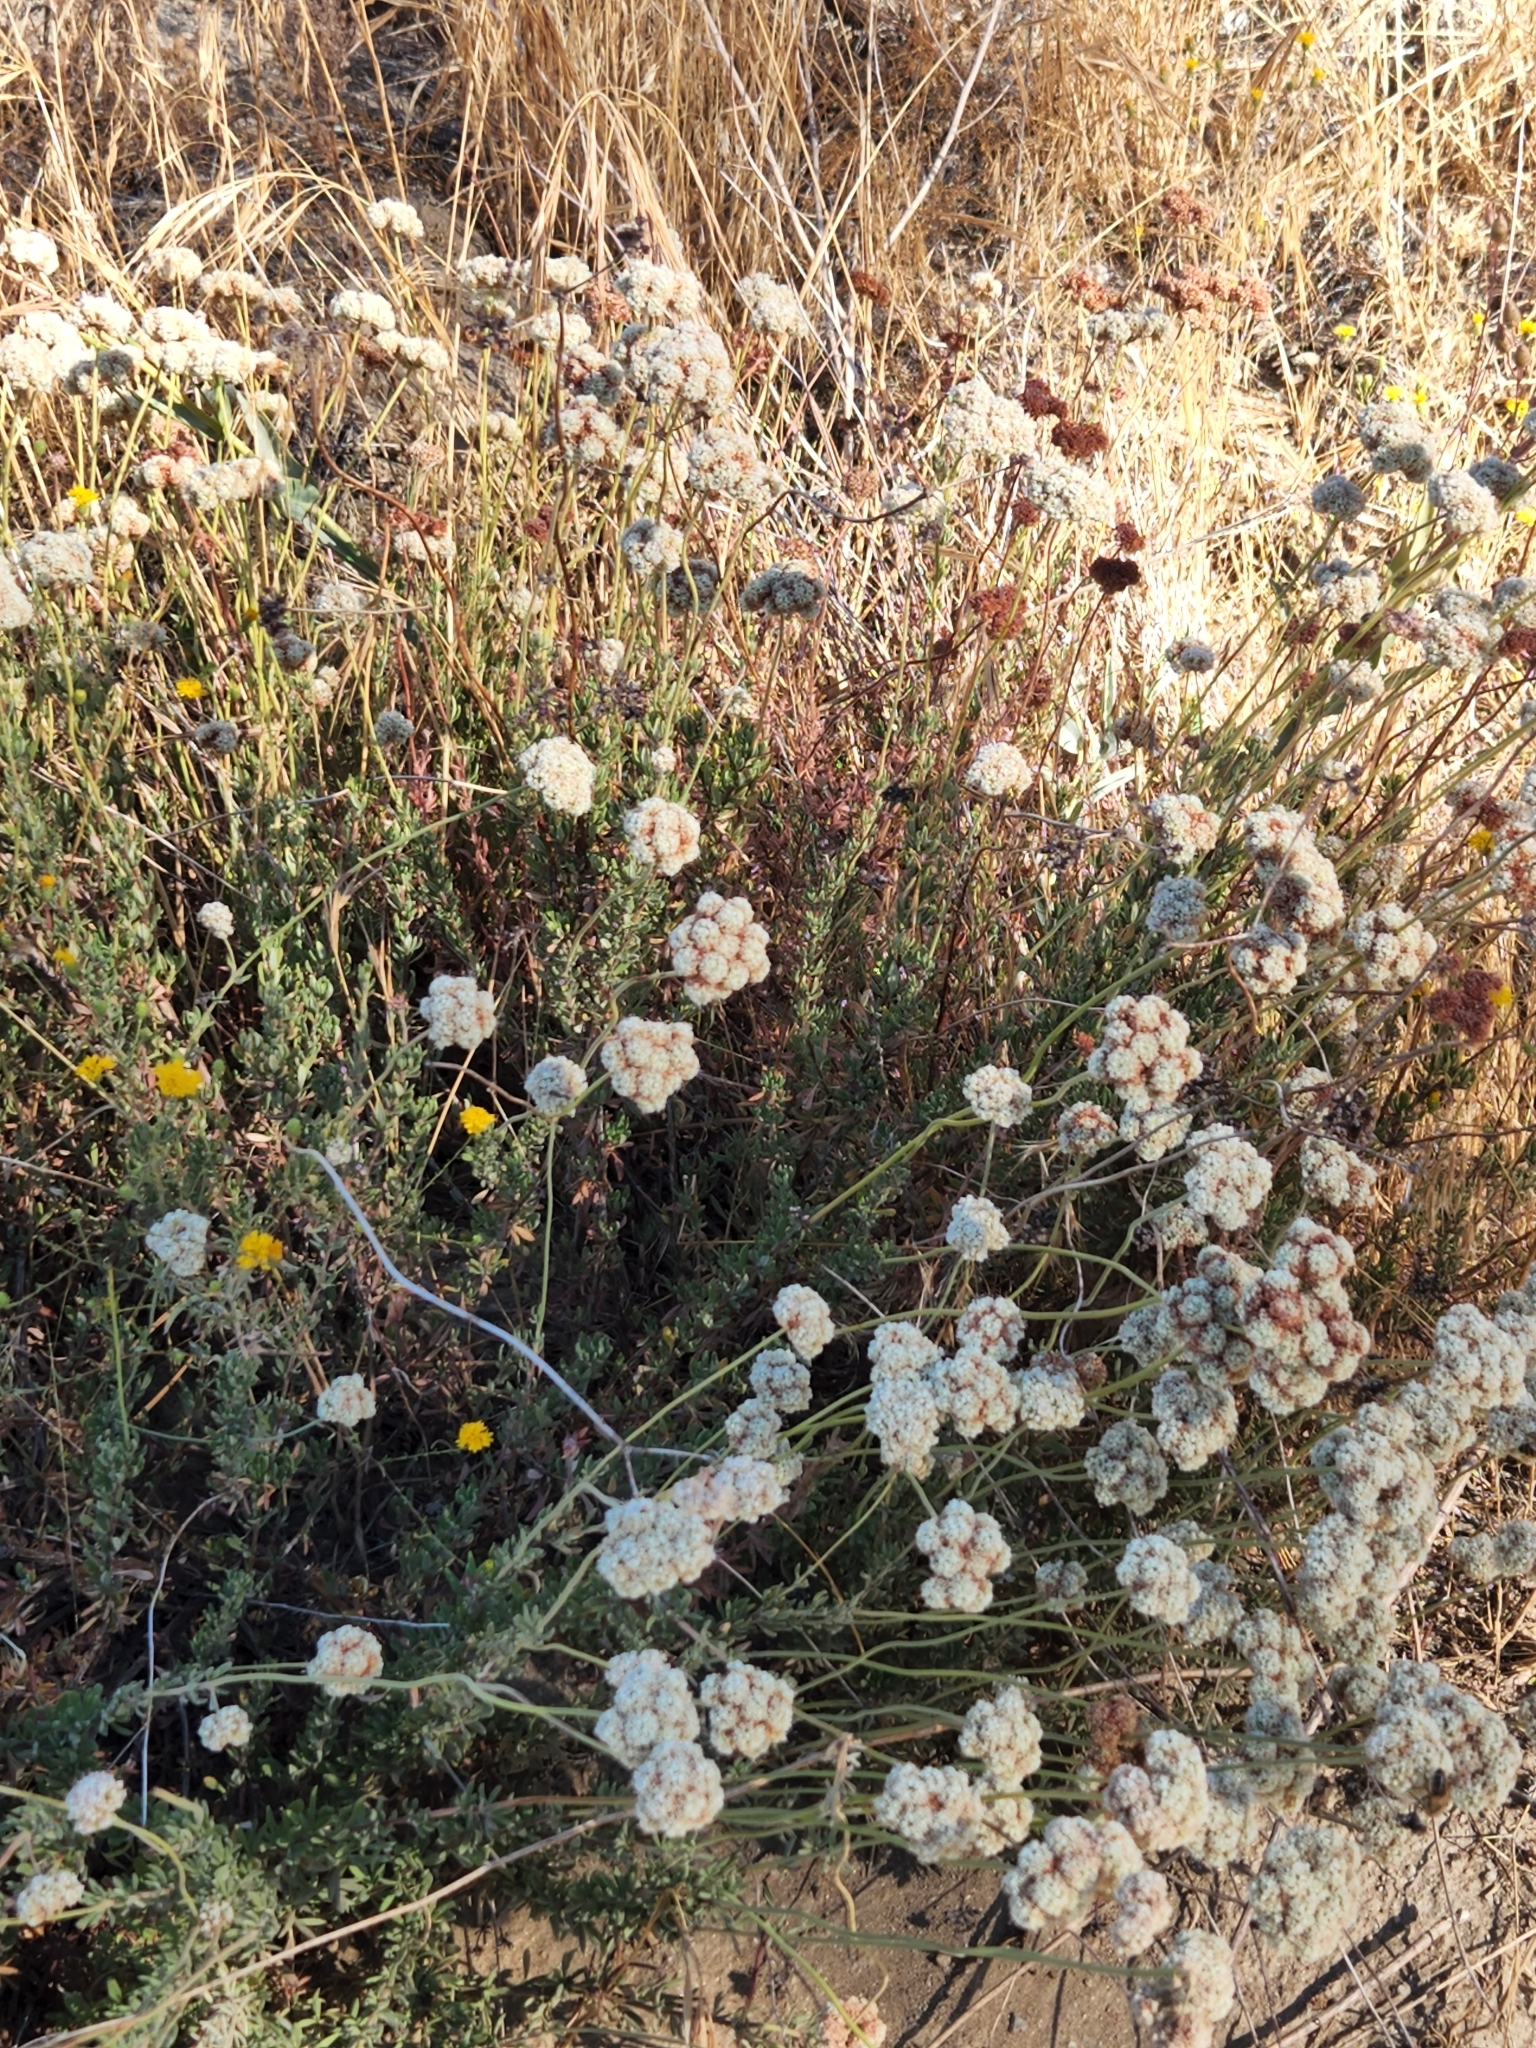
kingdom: Plantae
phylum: Tracheophyta
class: Magnoliopsida
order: Caryophyllales
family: Polygonaceae
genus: Eriogonum
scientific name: Eriogonum fasciculatum
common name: California wild buckwheat
